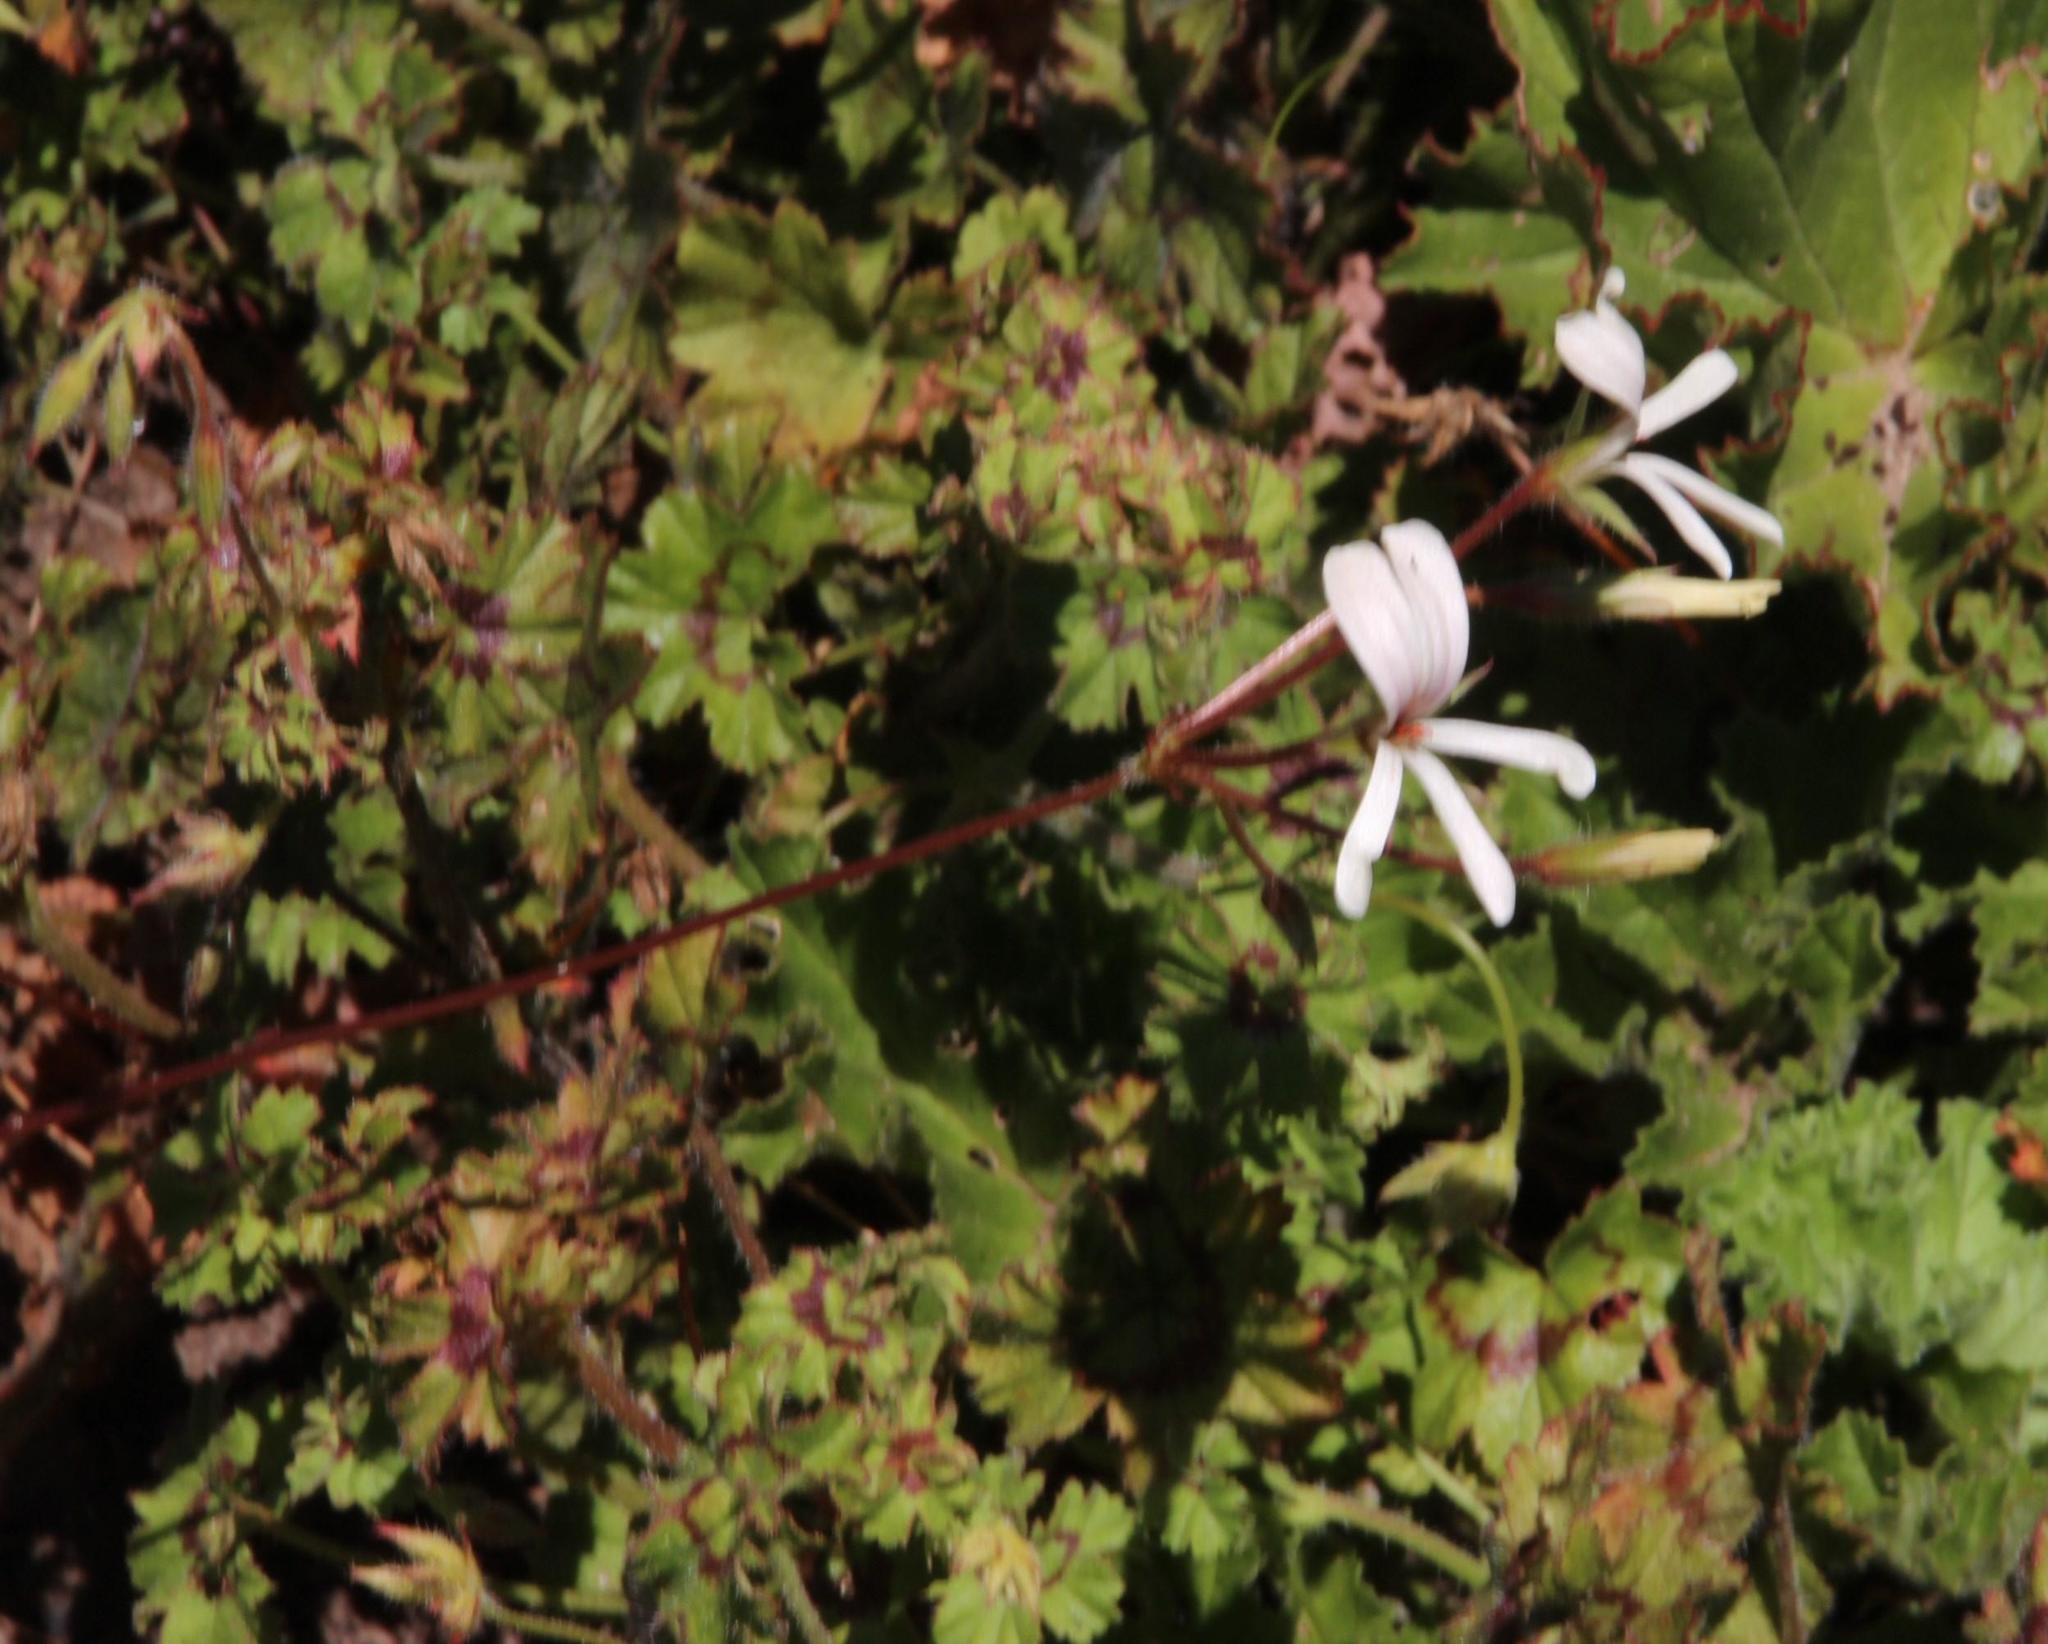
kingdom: Plantae
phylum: Tracheophyta
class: Magnoliopsida
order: Geraniales
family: Geraniaceae
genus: Pelargonium
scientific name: Pelargonium elongatum
